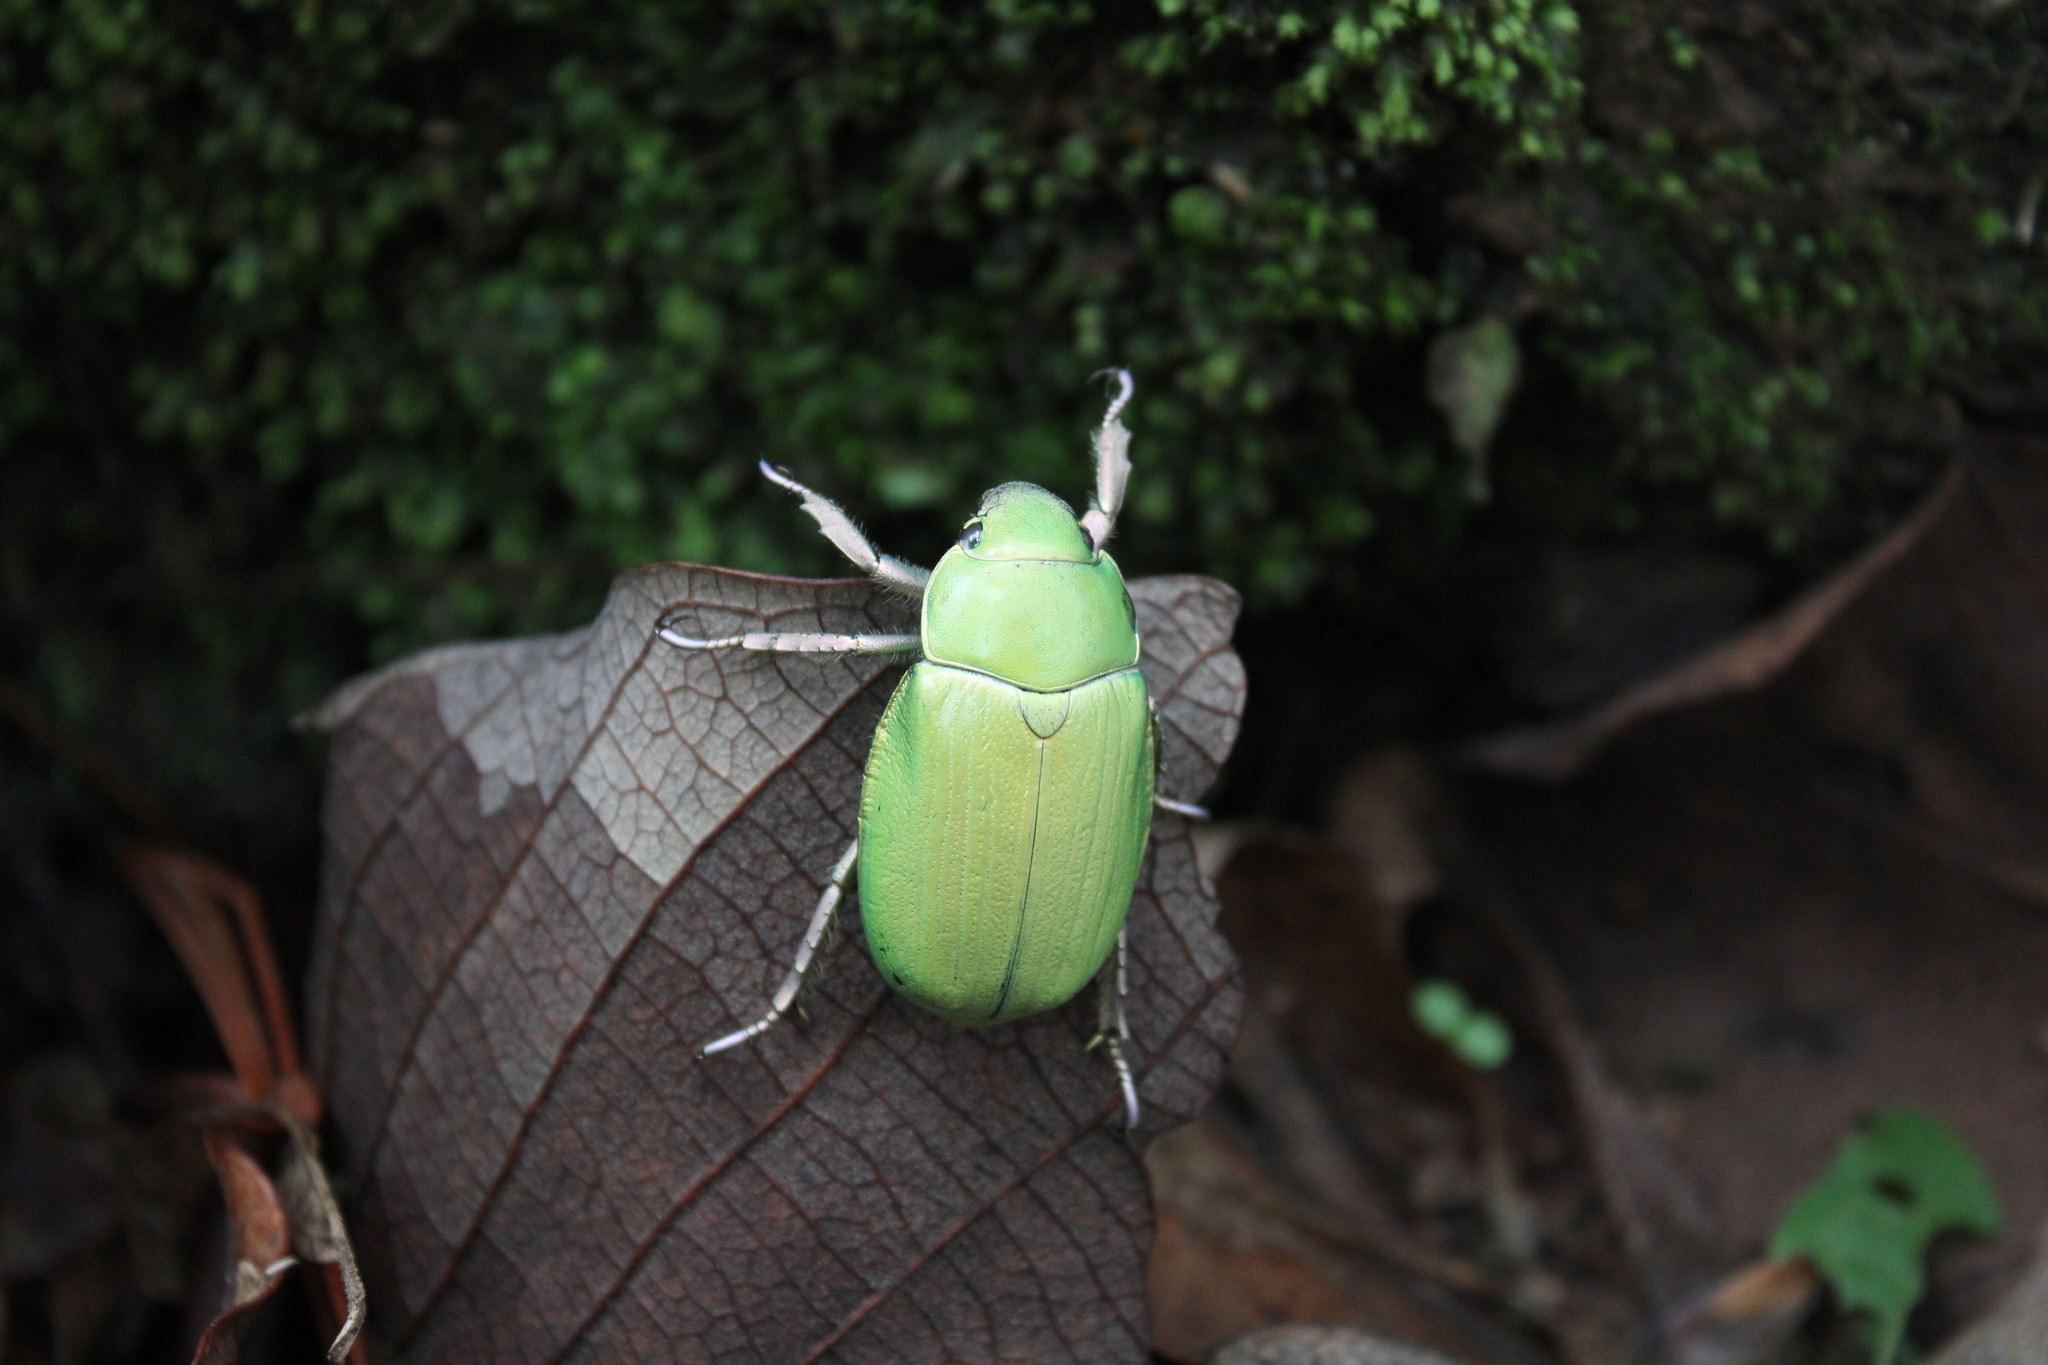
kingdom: Animalia
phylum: Arthropoda
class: Insecta
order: Coleoptera
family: Scarabaeidae
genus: Chrysina
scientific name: Chrysina nogueirai
